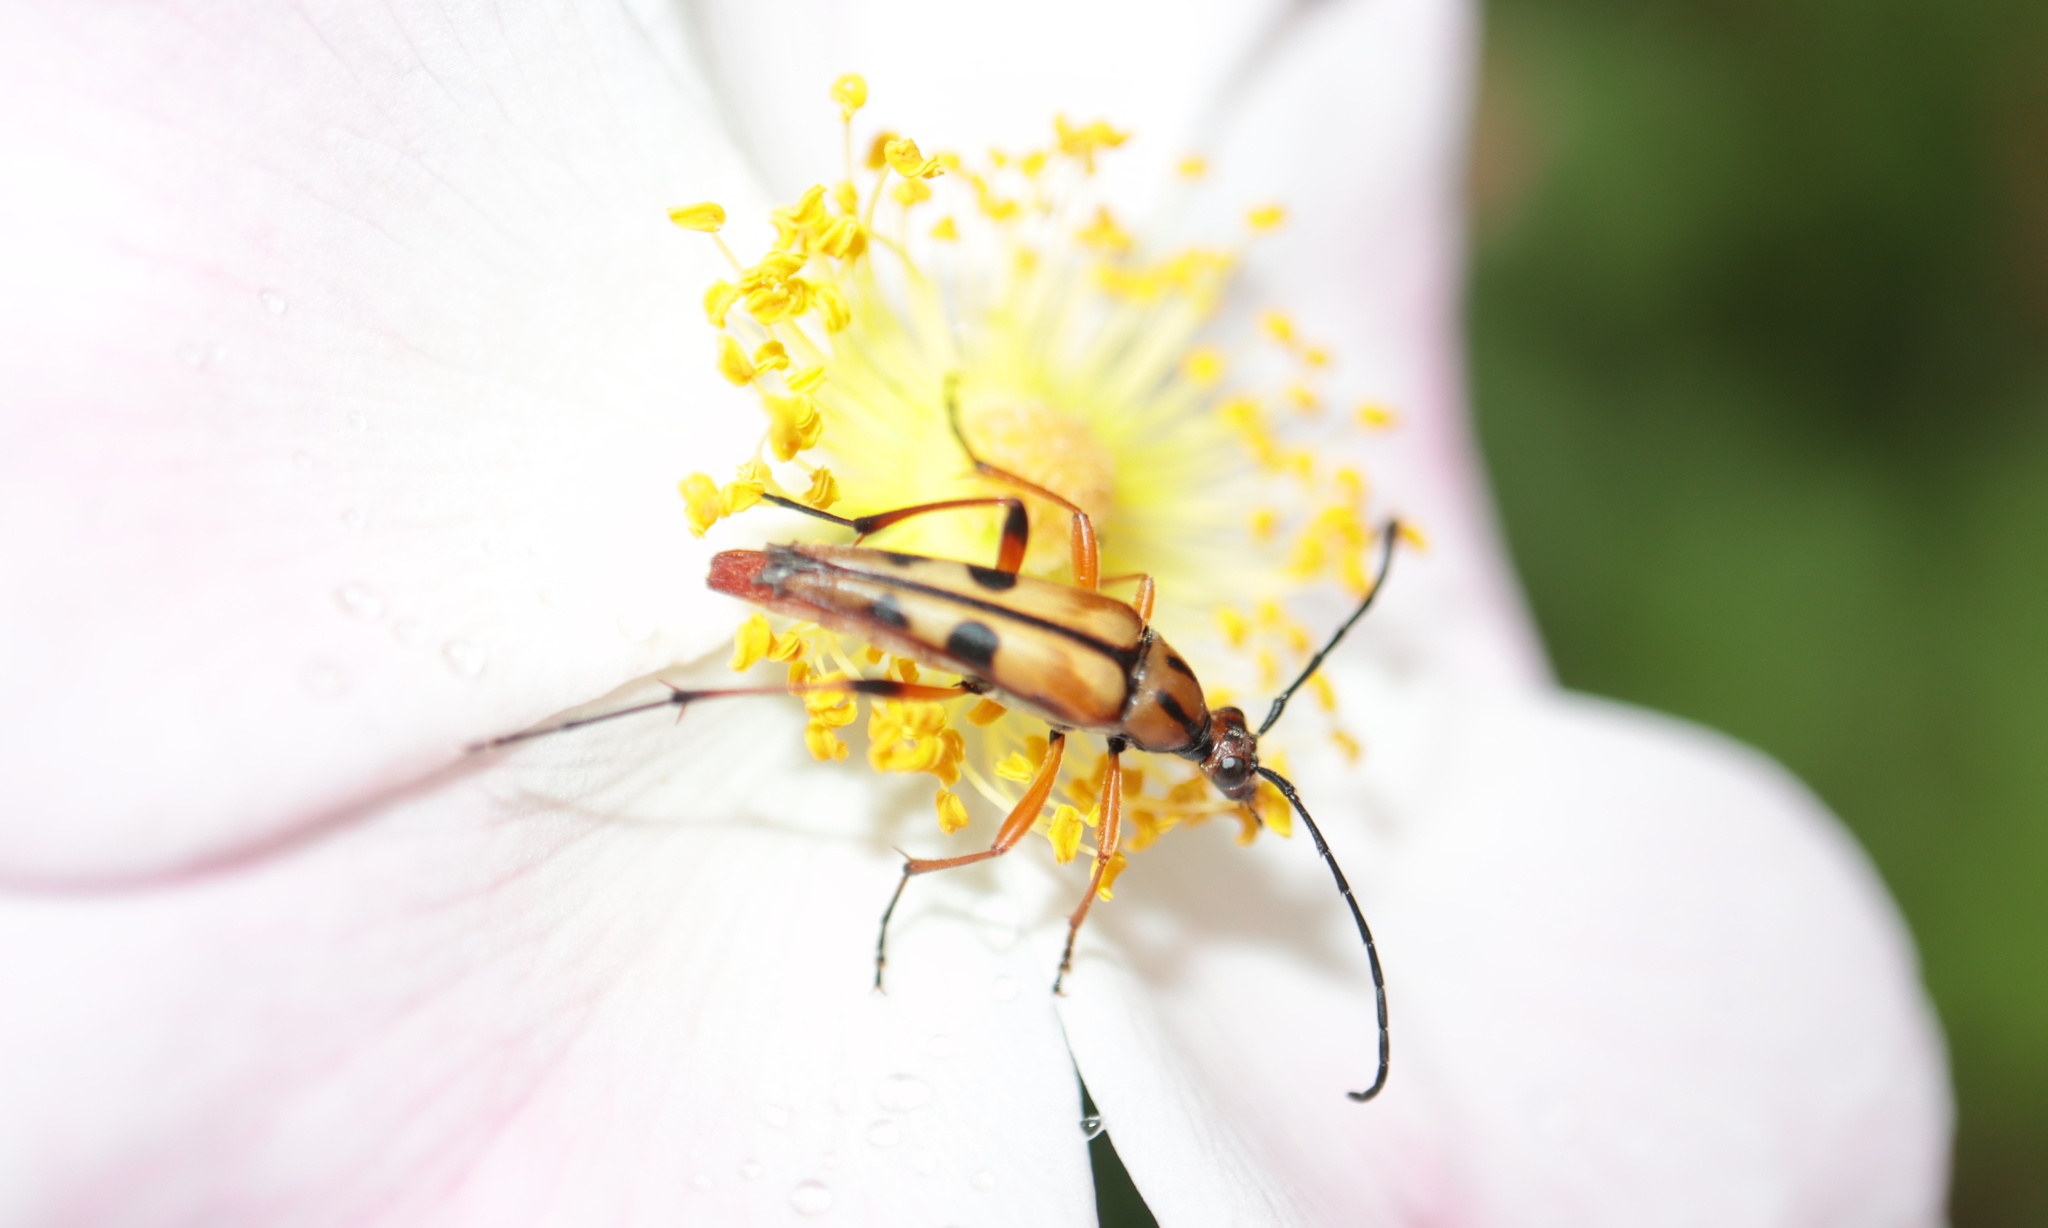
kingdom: Animalia
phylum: Arthropoda
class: Insecta
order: Coleoptera
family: Cerambycidae
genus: Strangalia
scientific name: Strangalia famelica
